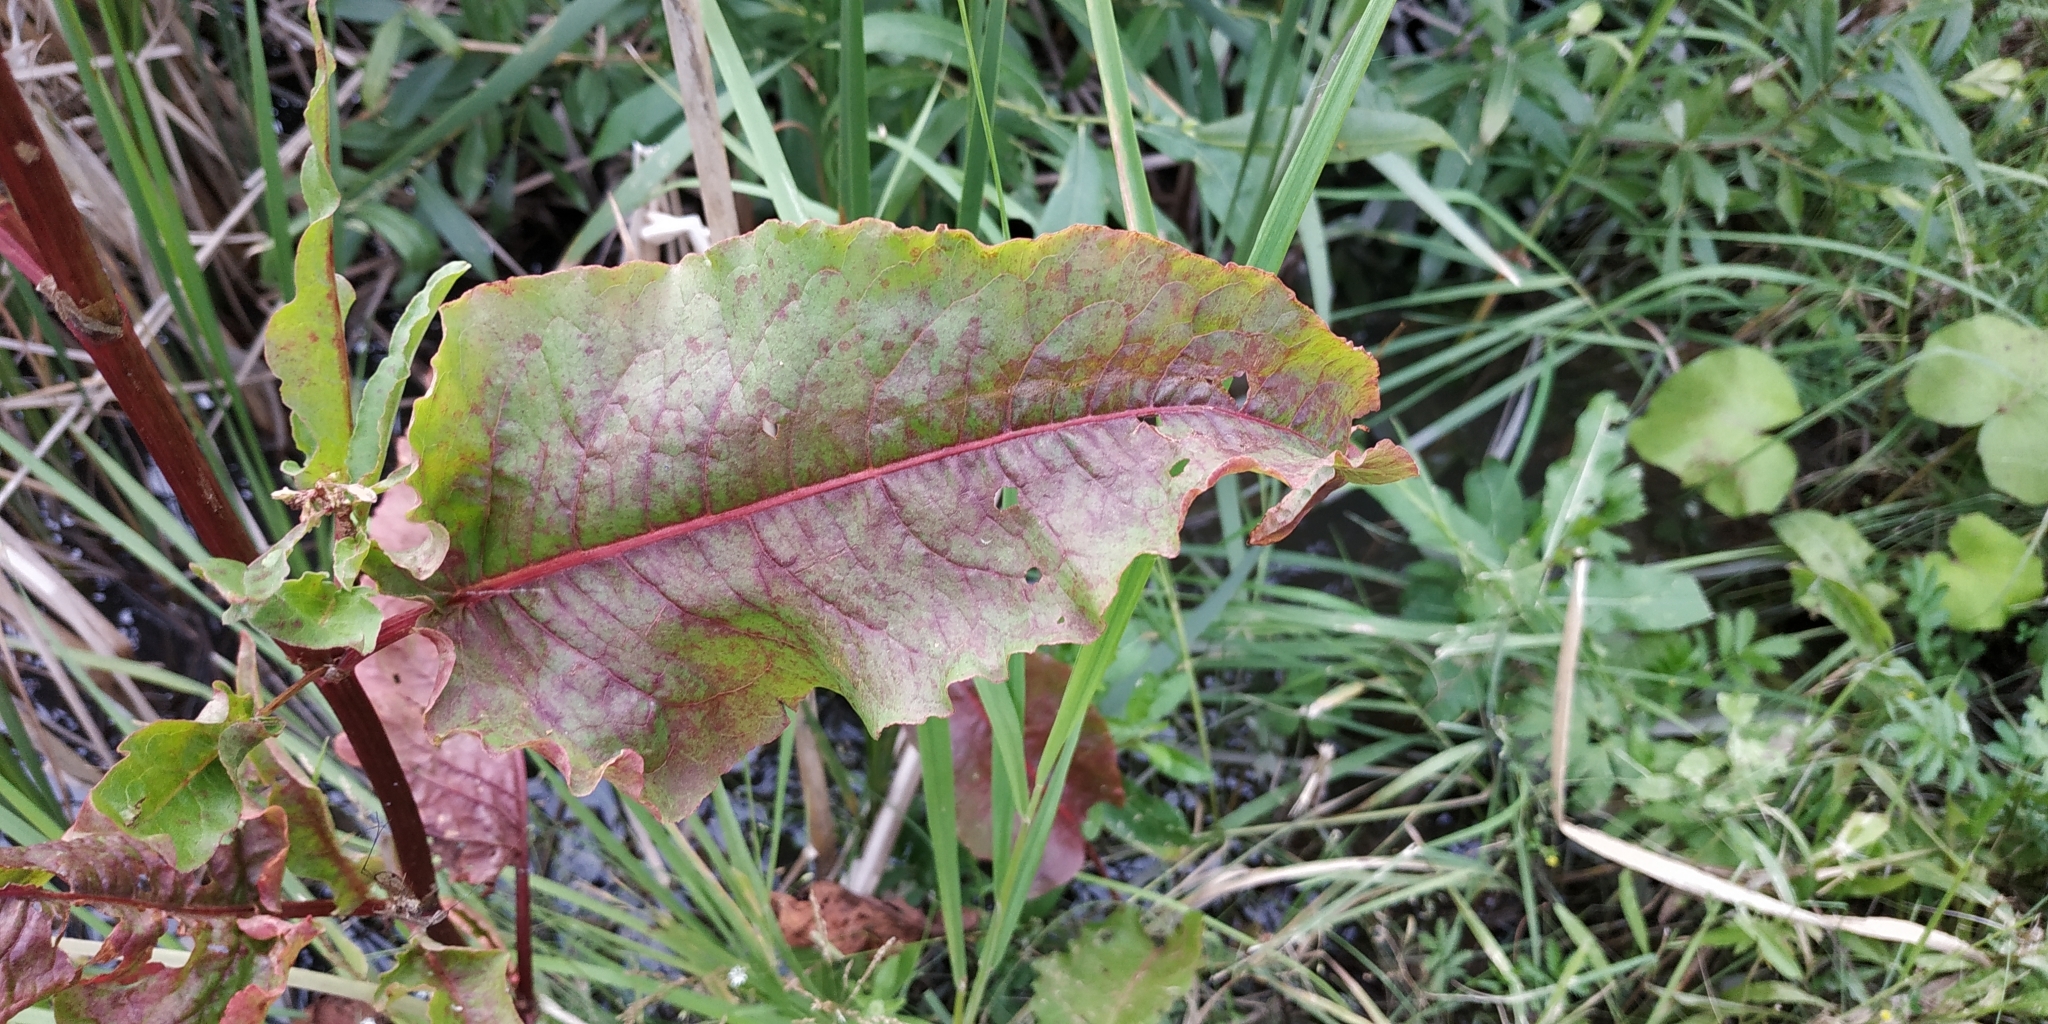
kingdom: Plantae
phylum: Tracheophyta
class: Magnoliopsida
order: Caryophyllales
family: Polygonaceae
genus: Rumex
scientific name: Rumex aquaticus
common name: Scottish dock
